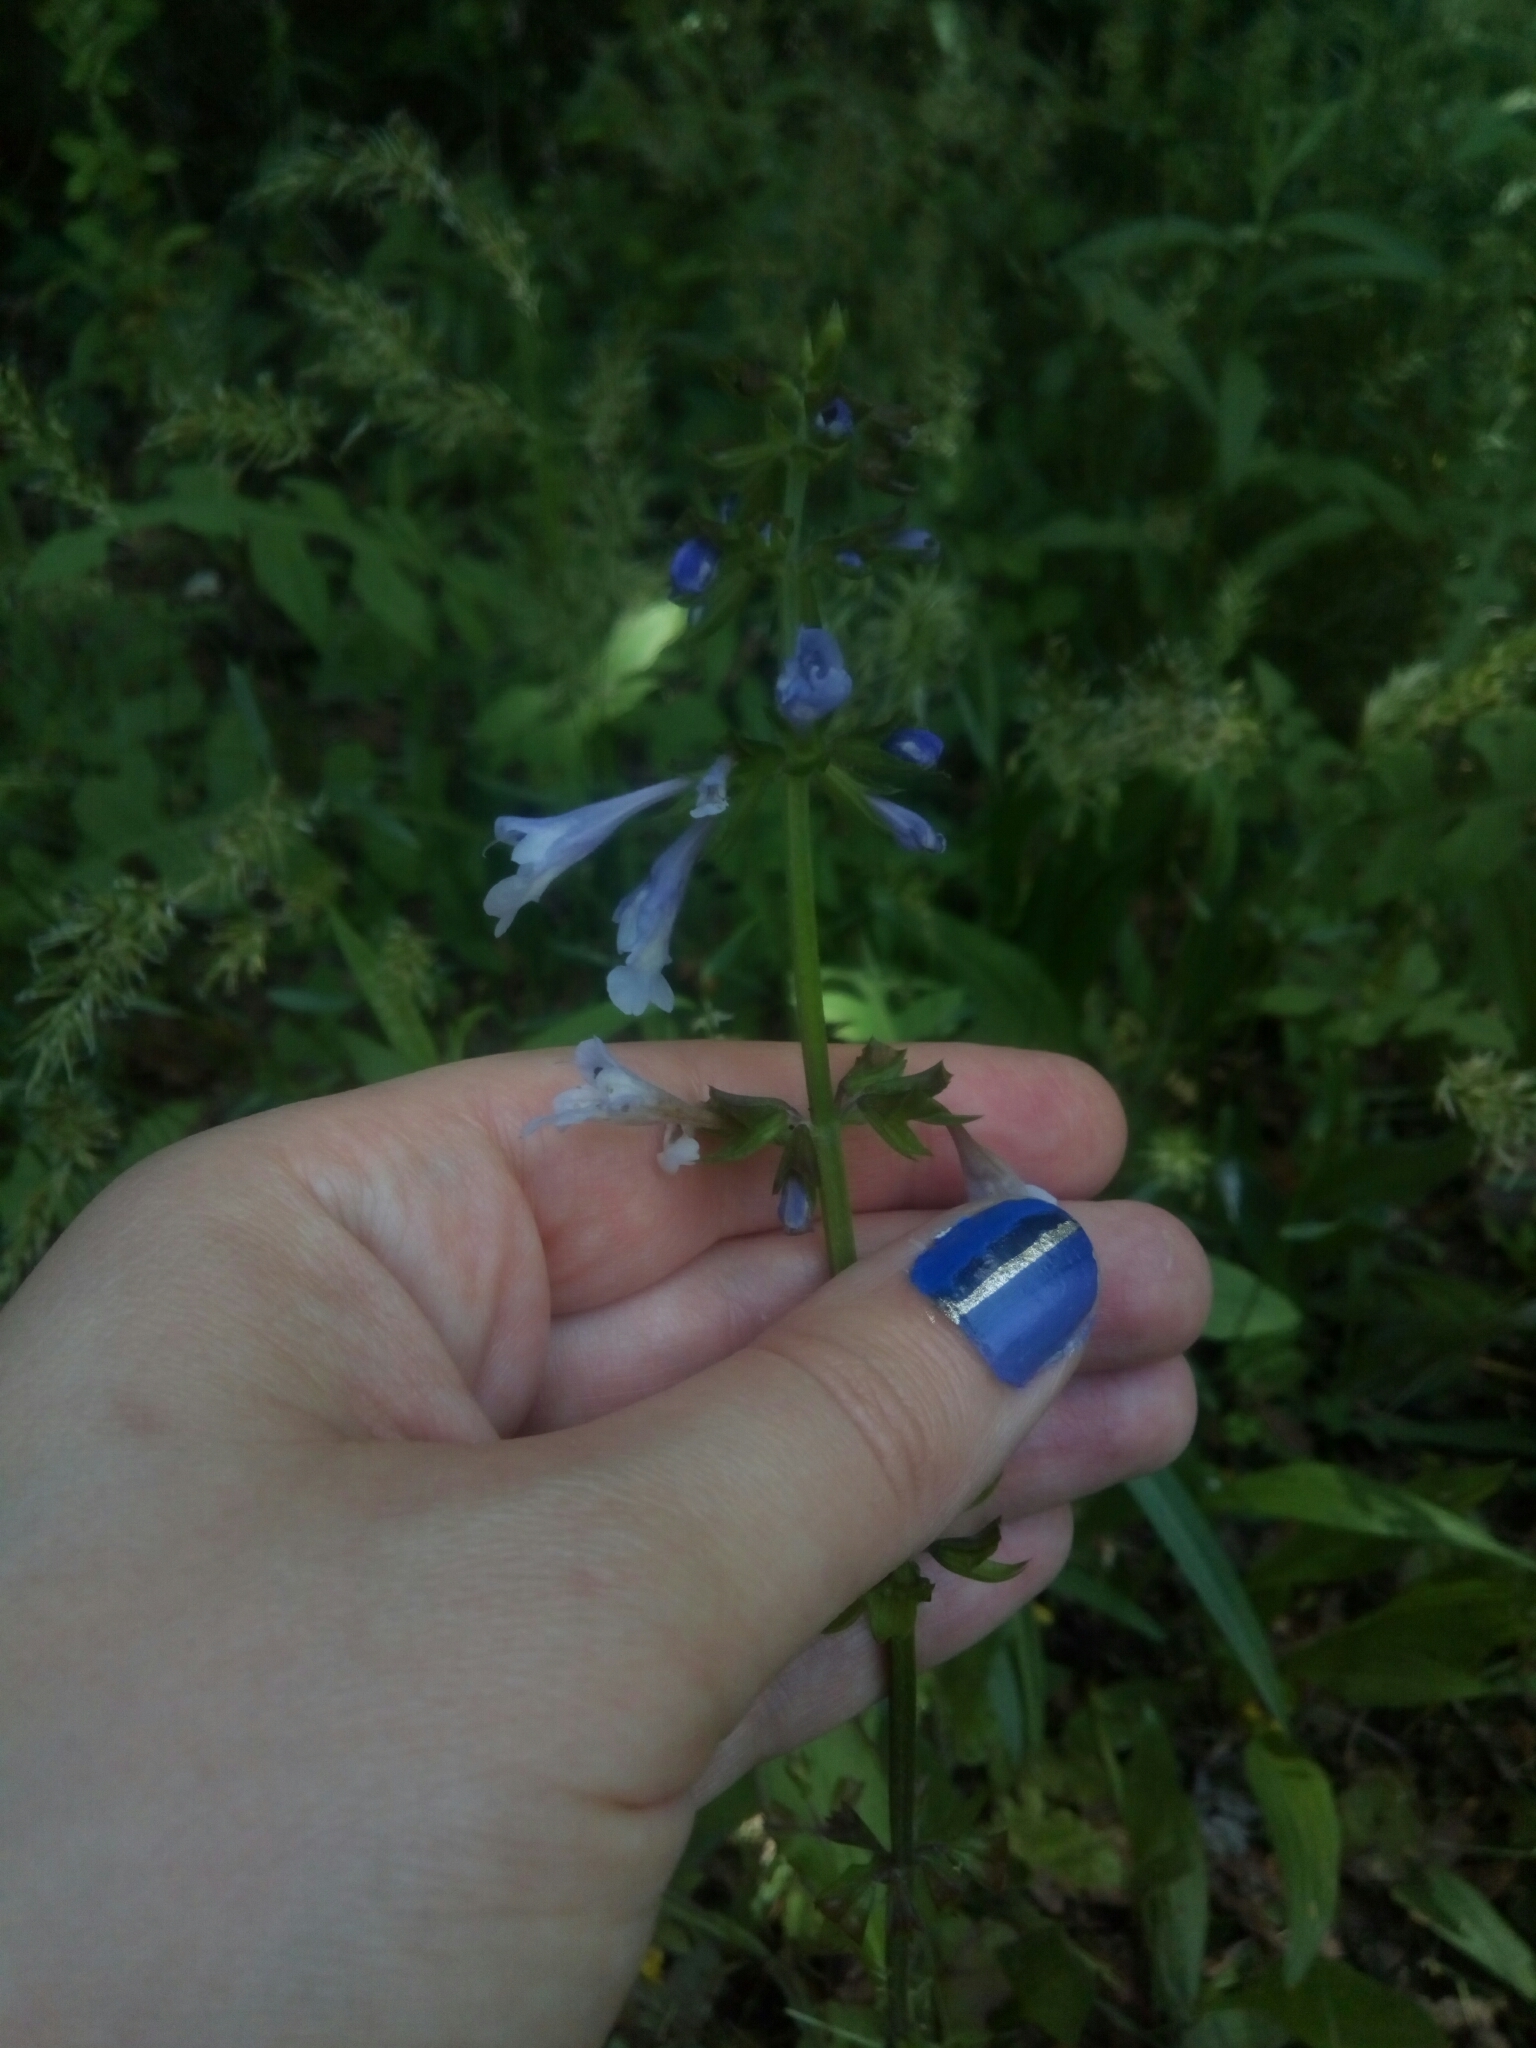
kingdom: Plantae
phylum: Tracheophyta
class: Magnoliopsida
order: Lamiales
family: Lamiaceae
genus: Salvia
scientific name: Salvia lyrata
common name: Cancerweed
